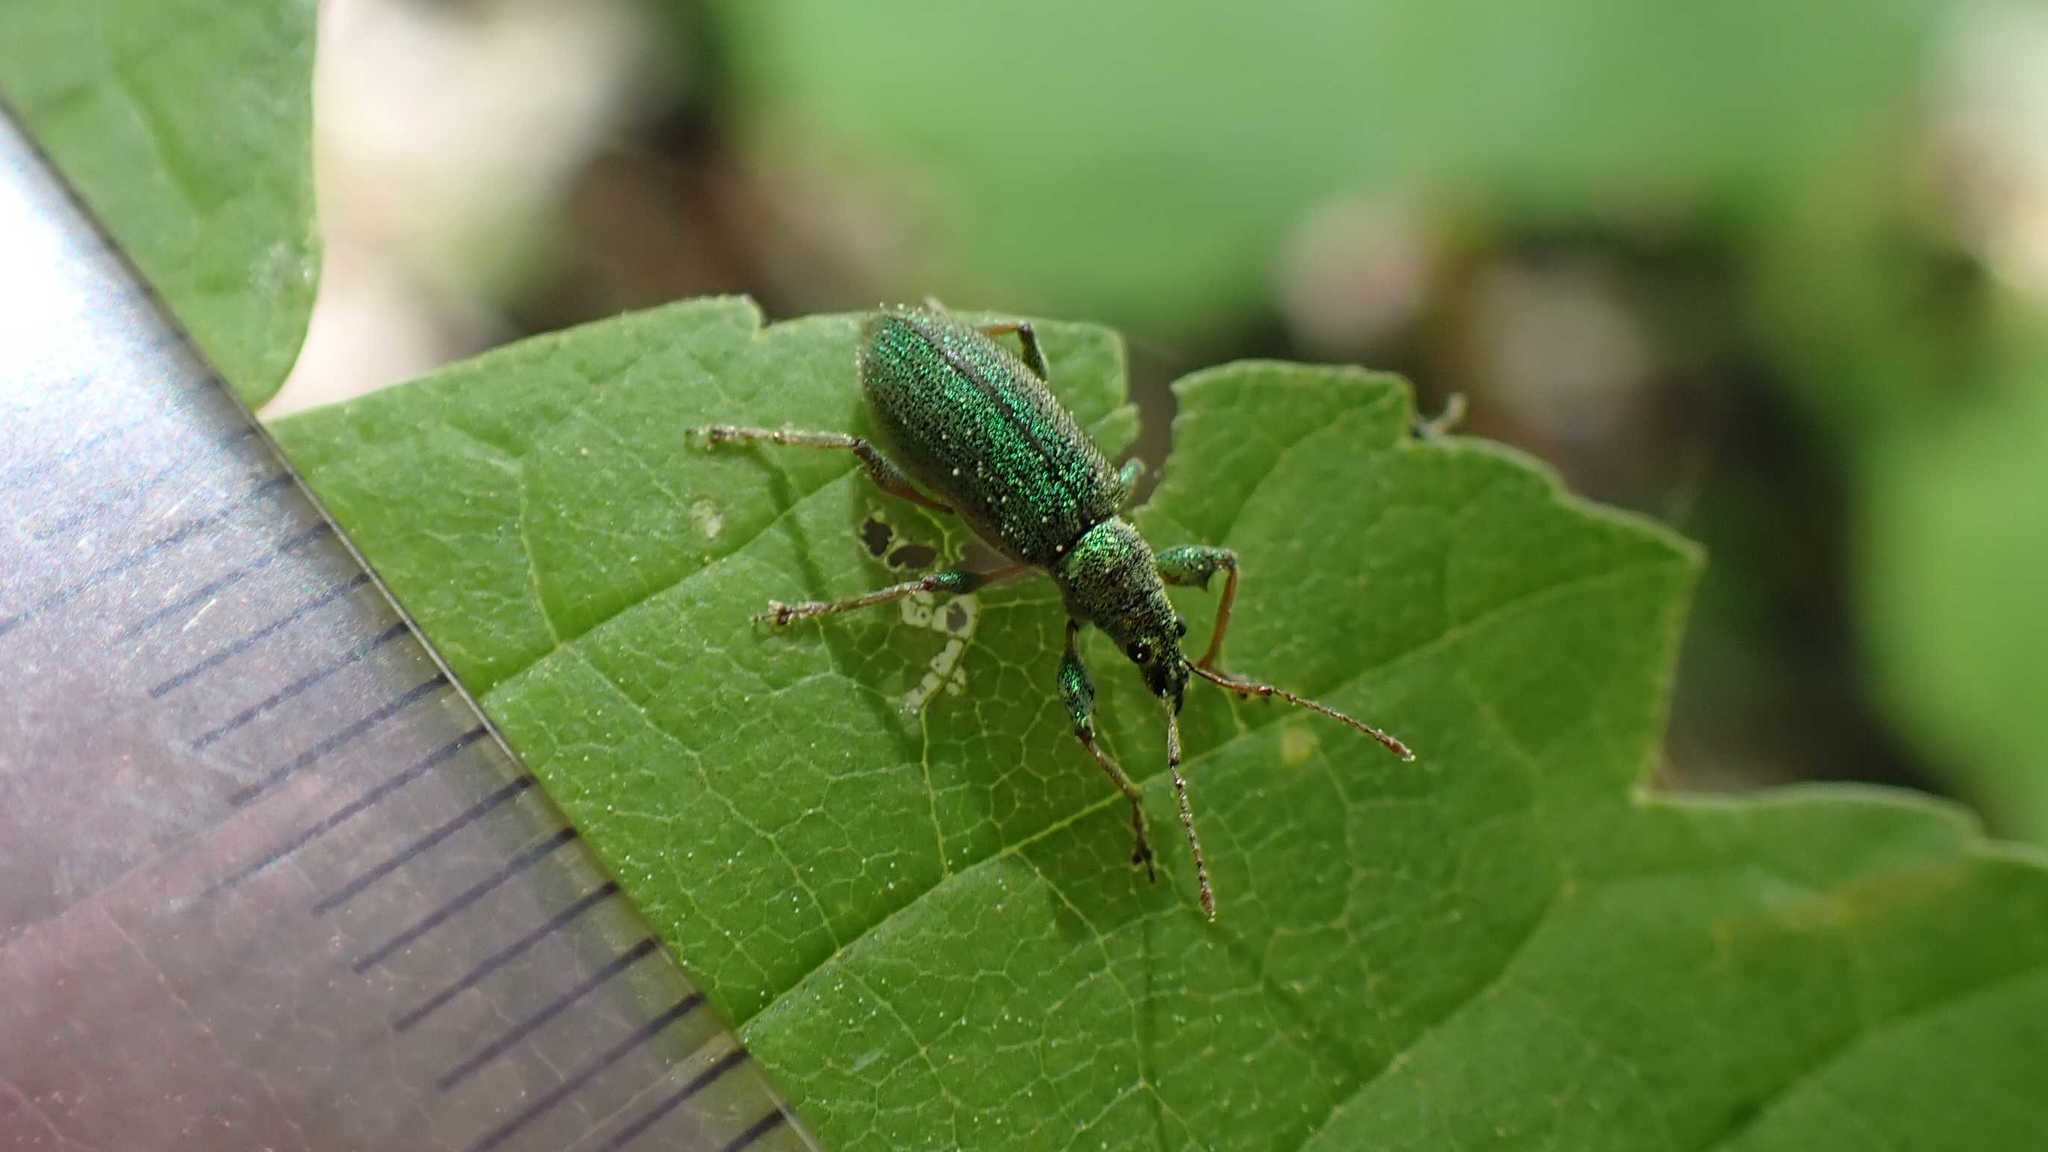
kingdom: Animalia
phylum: Arthropoda
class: Insecta
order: Coleoptera
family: Curculionidae
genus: Phyllobius
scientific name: Phyllobius arborator
